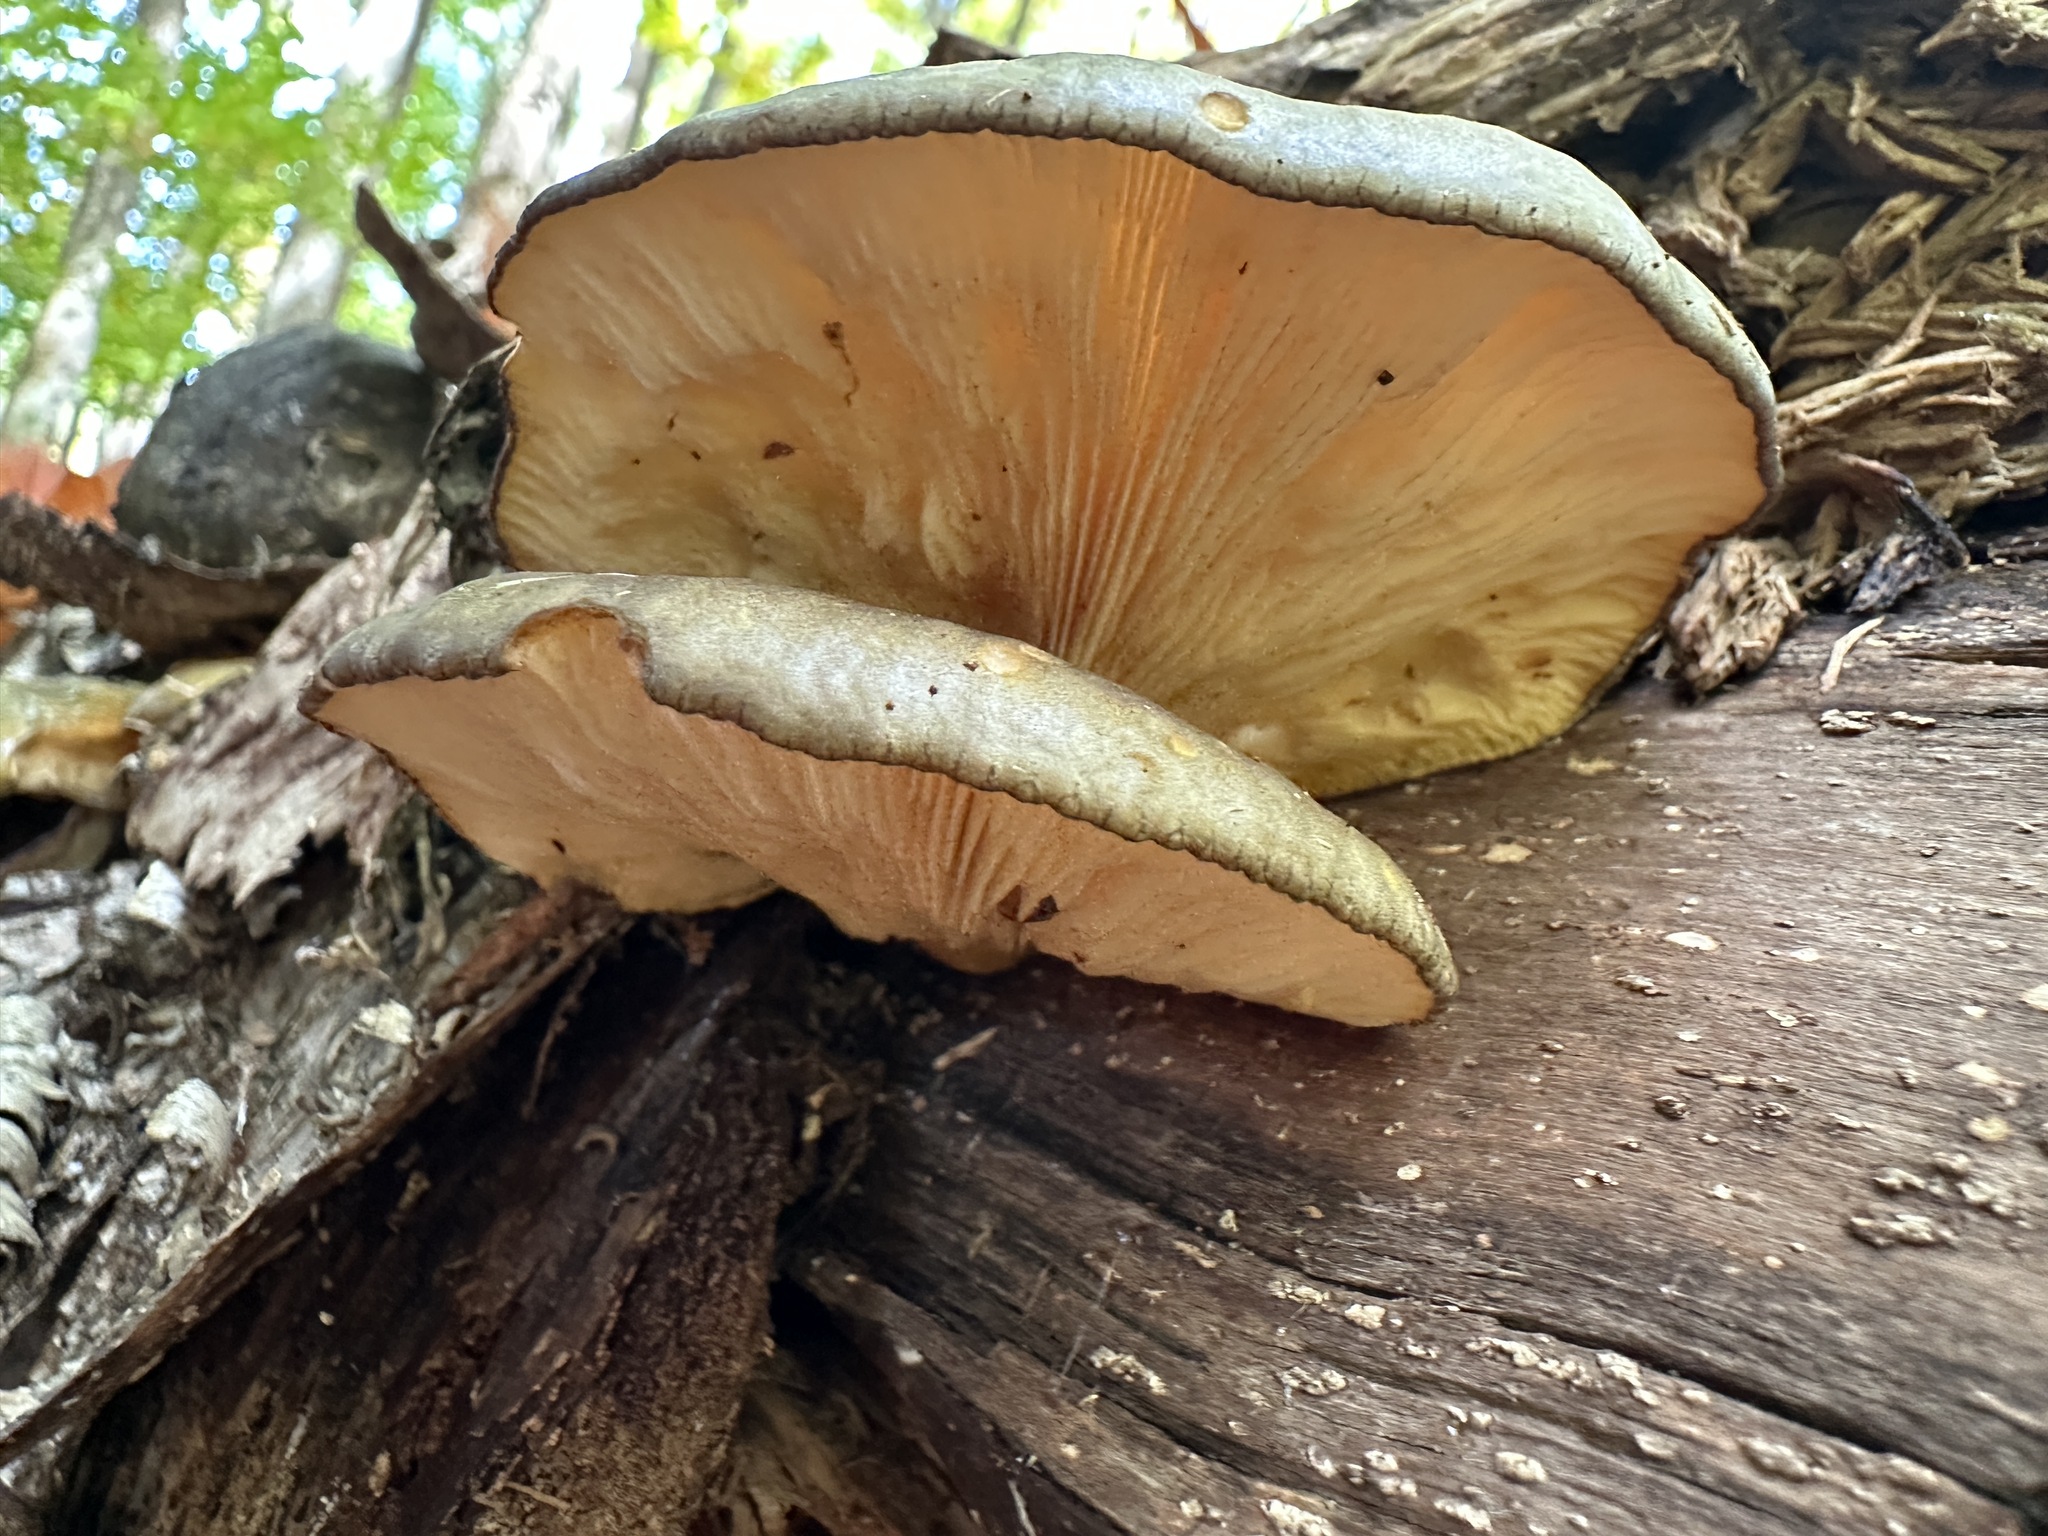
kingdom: Fungi
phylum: Basidiomycota
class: Agaricomycetes
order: Agaricales
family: Sarcomyxaceae
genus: Sarcomyxa
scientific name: Sarcomyxa serotina
